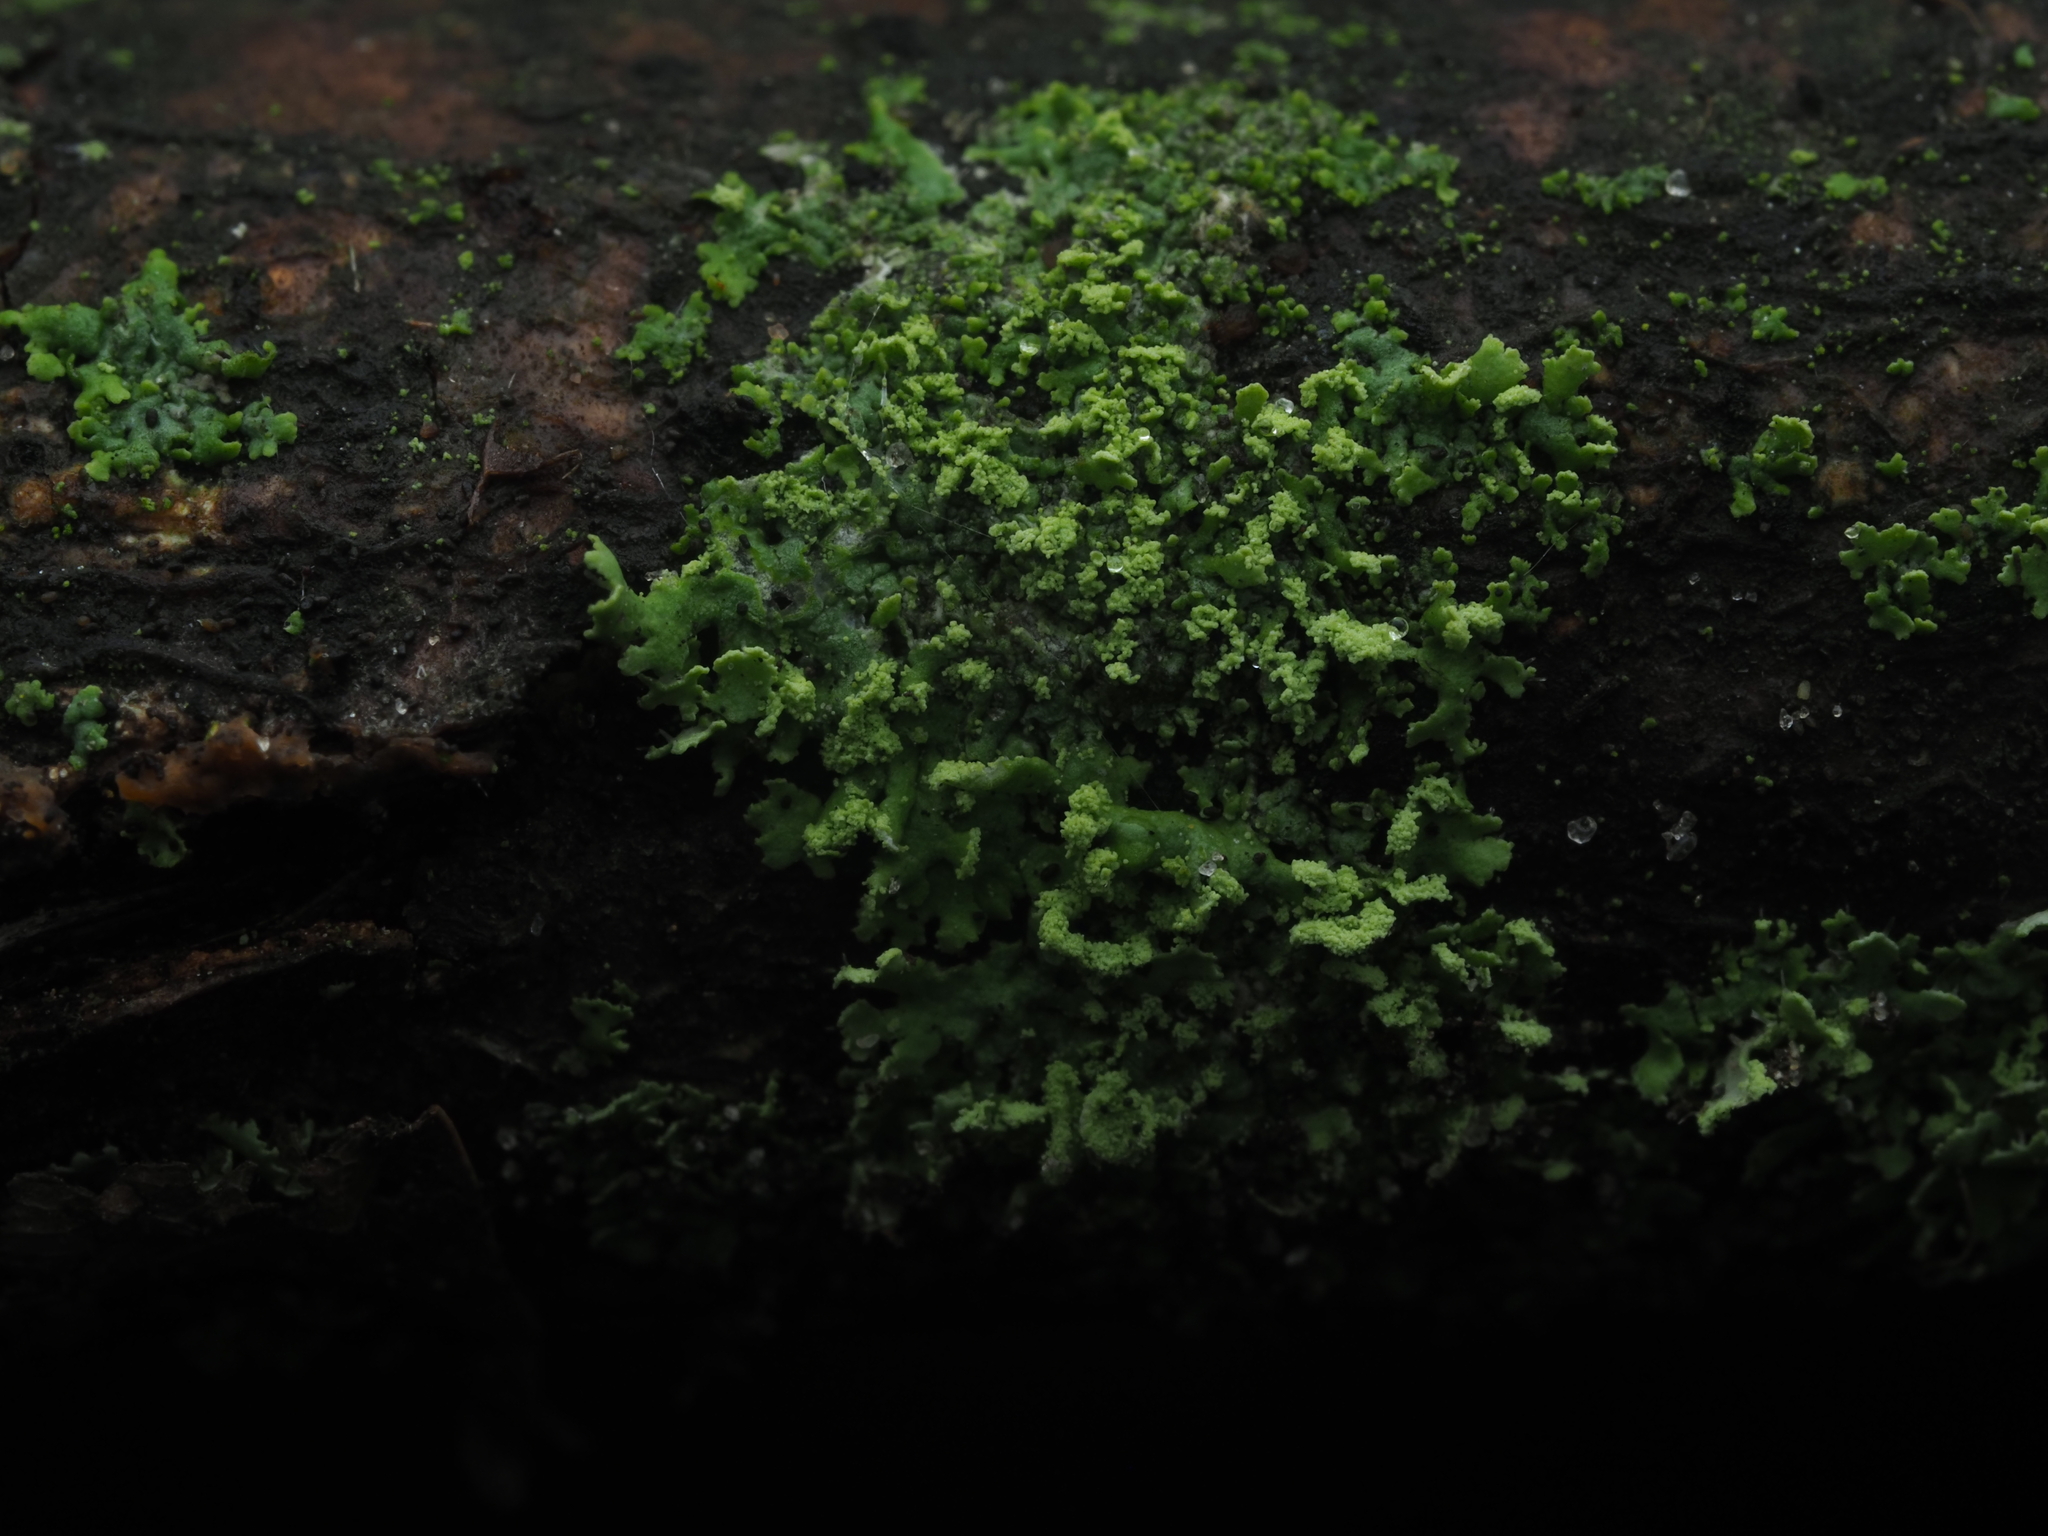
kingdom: Fungi
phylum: Ascomycota
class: Lecanoromycetes
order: Caliciales
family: Physciaceae
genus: Phaeophyscia
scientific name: Phaeophyscia orbicularis
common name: Mealy shadow lichen
